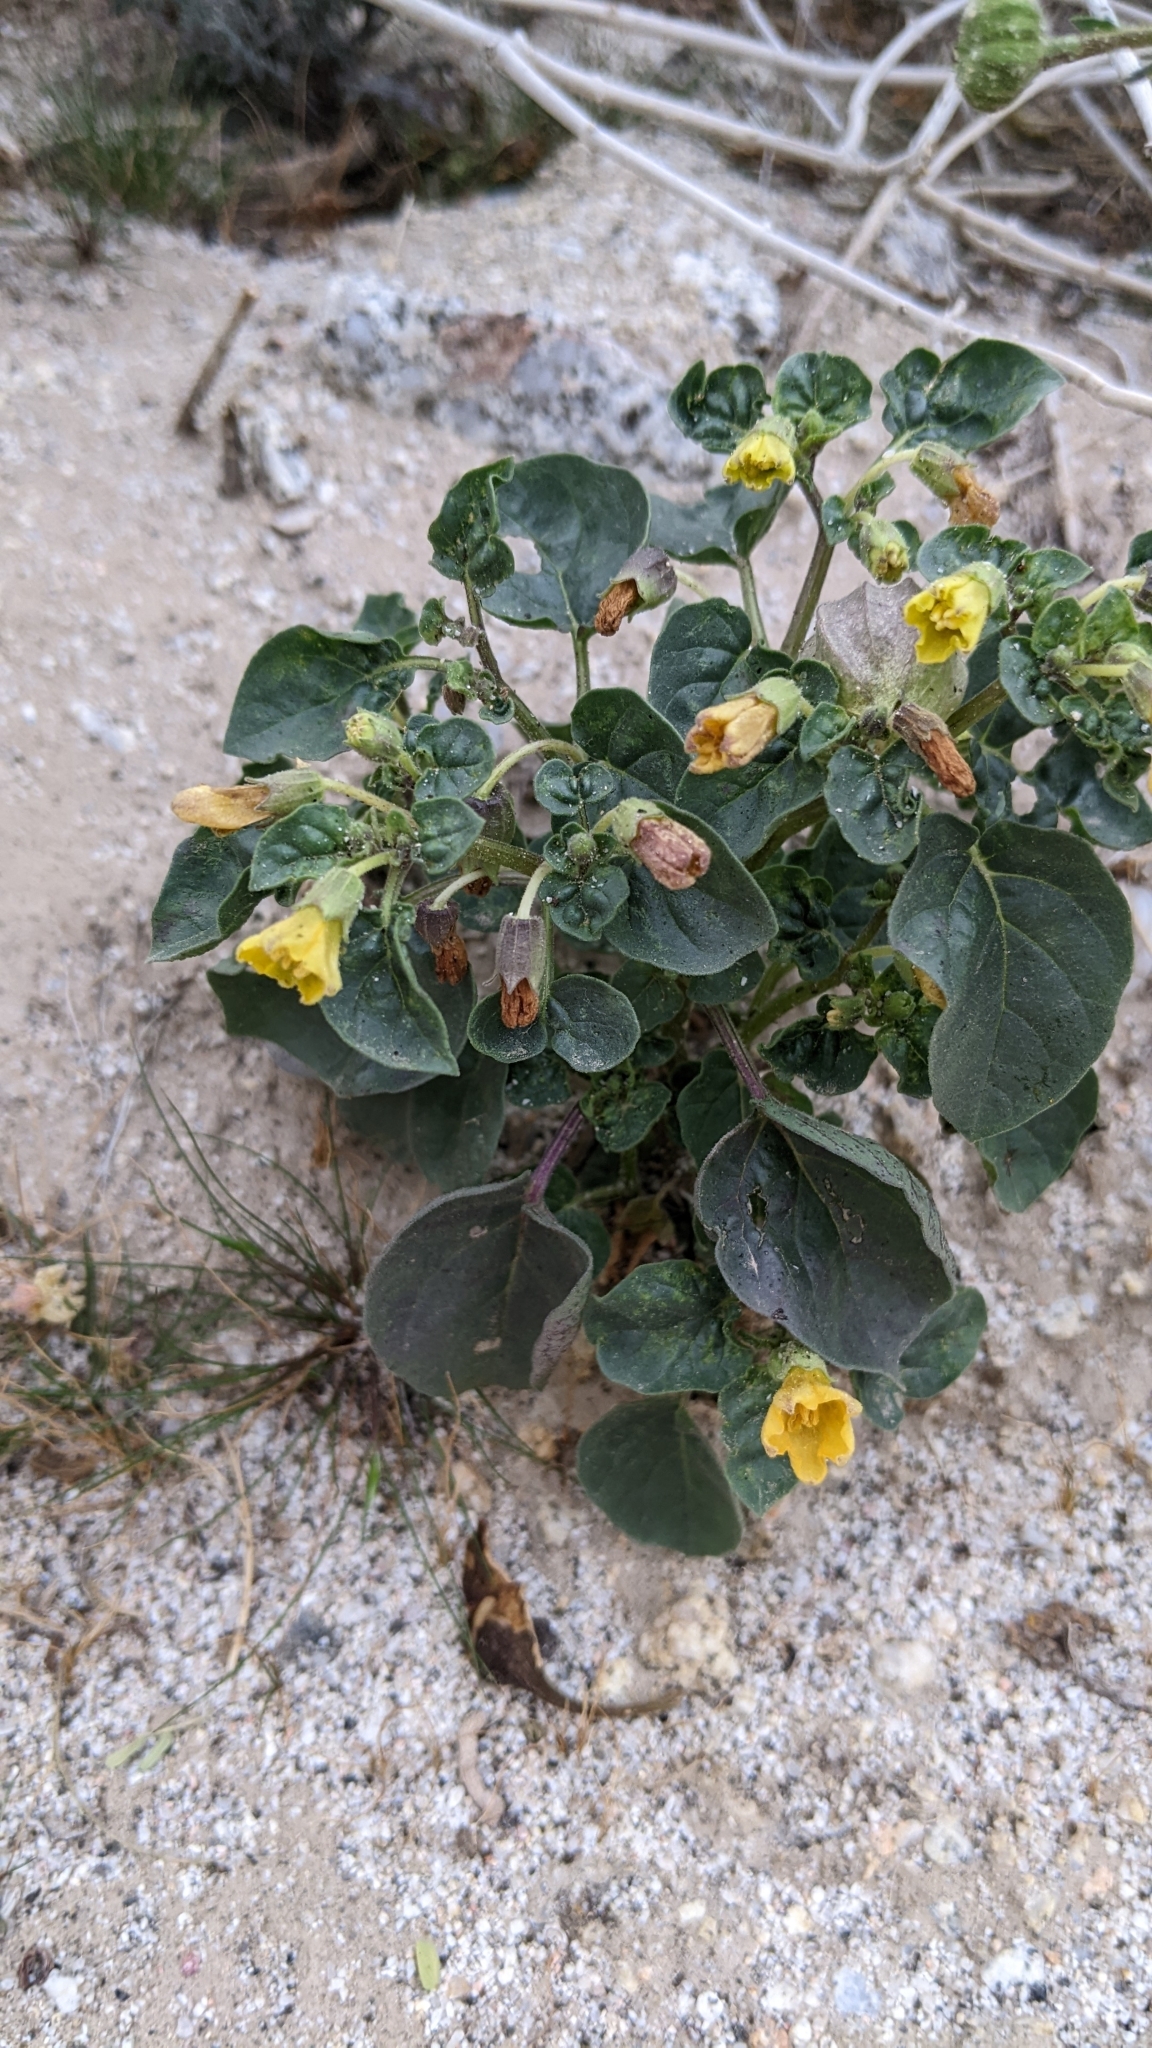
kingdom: Plantae
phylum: Tracheophyta
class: Magnoliopsida
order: Solanales
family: Solanaceae
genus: Physalis
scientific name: Physalis crassifolia
